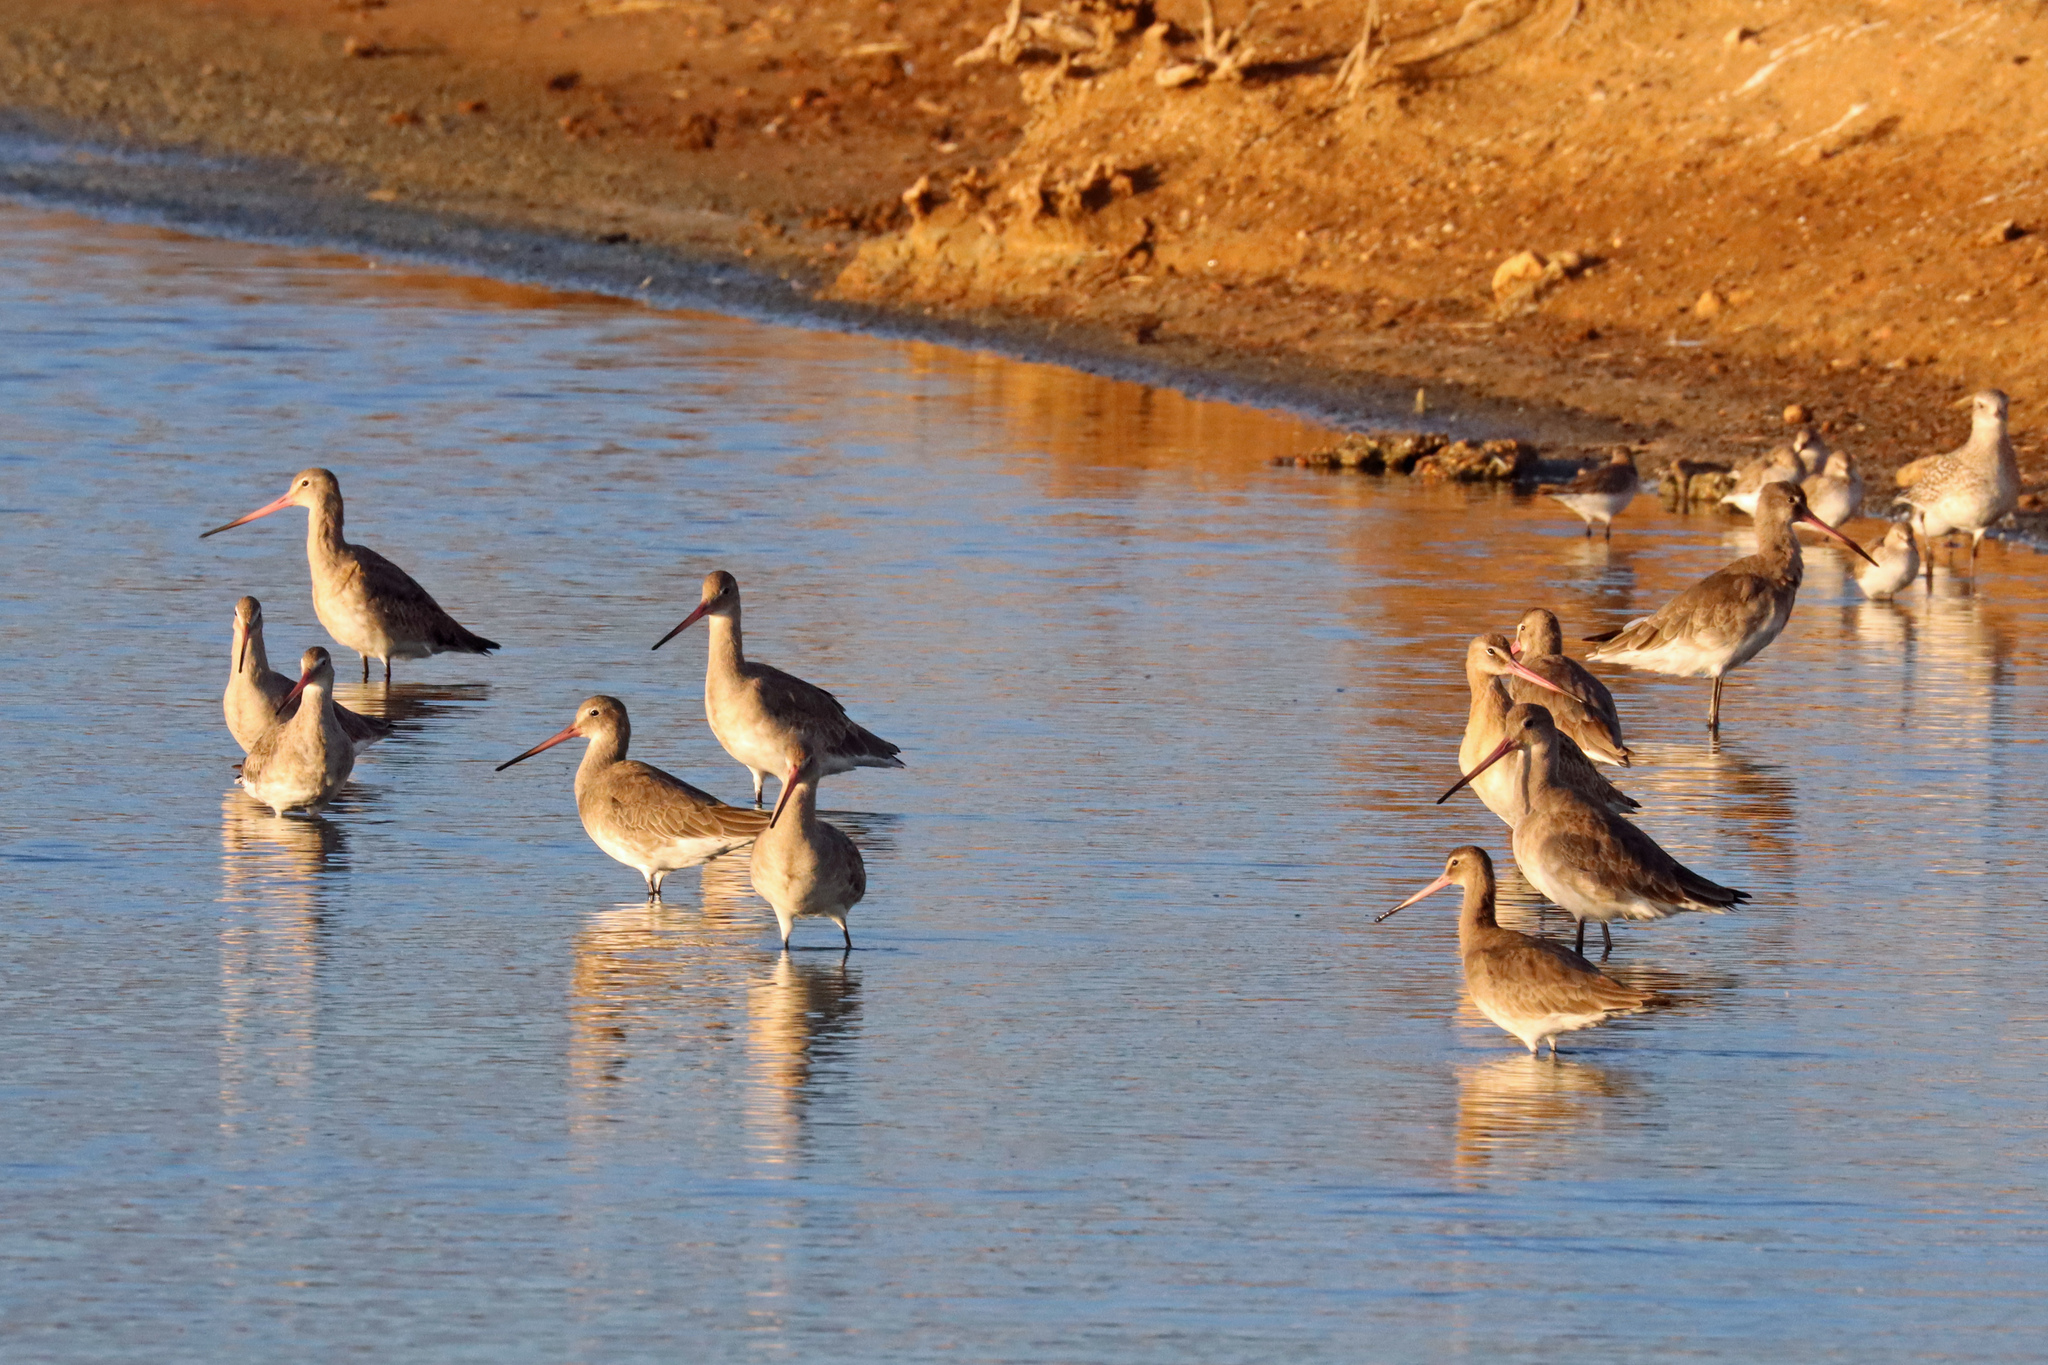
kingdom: Animalia
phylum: Chordata
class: Aves
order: Charadriiformes
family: Scolopacidae
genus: Limosa
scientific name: Limosa limosa
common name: Black-tailed godwit
